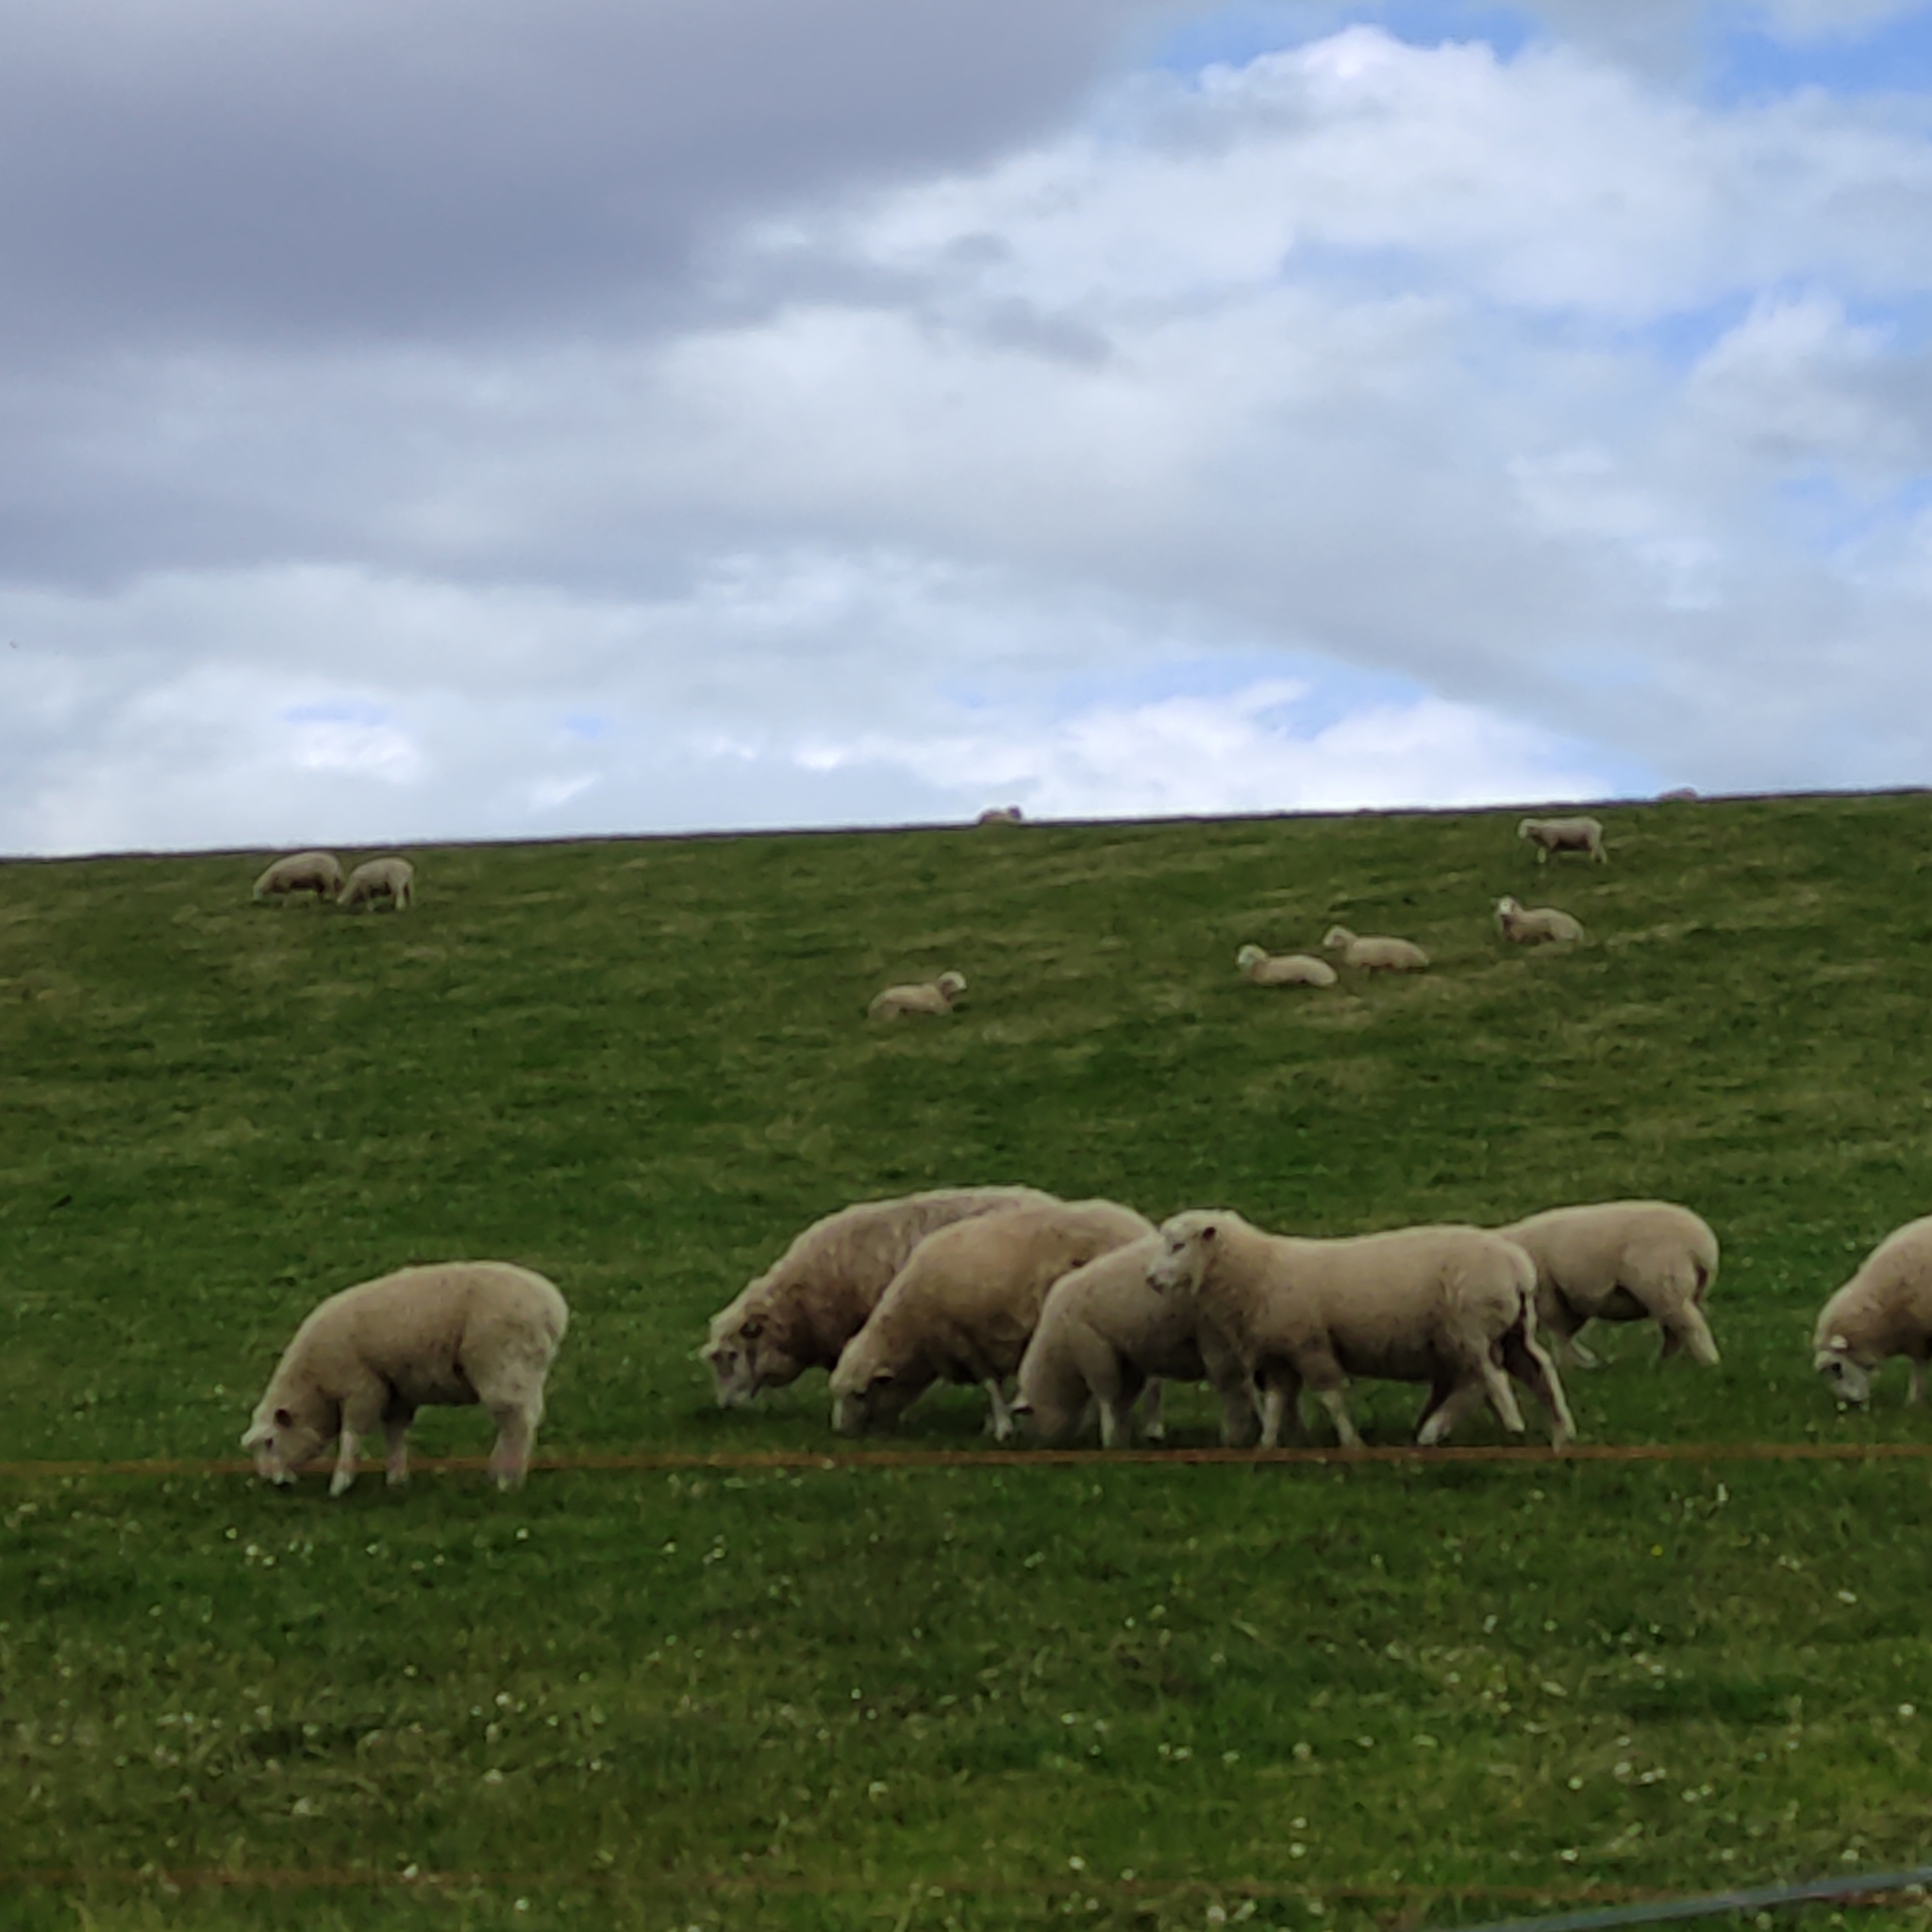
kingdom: Animalia
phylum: Chordata
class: Mammalia
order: Artiodactyla
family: Bovidae
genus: Ovis
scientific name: Ovis aries
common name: Domestic sheep
